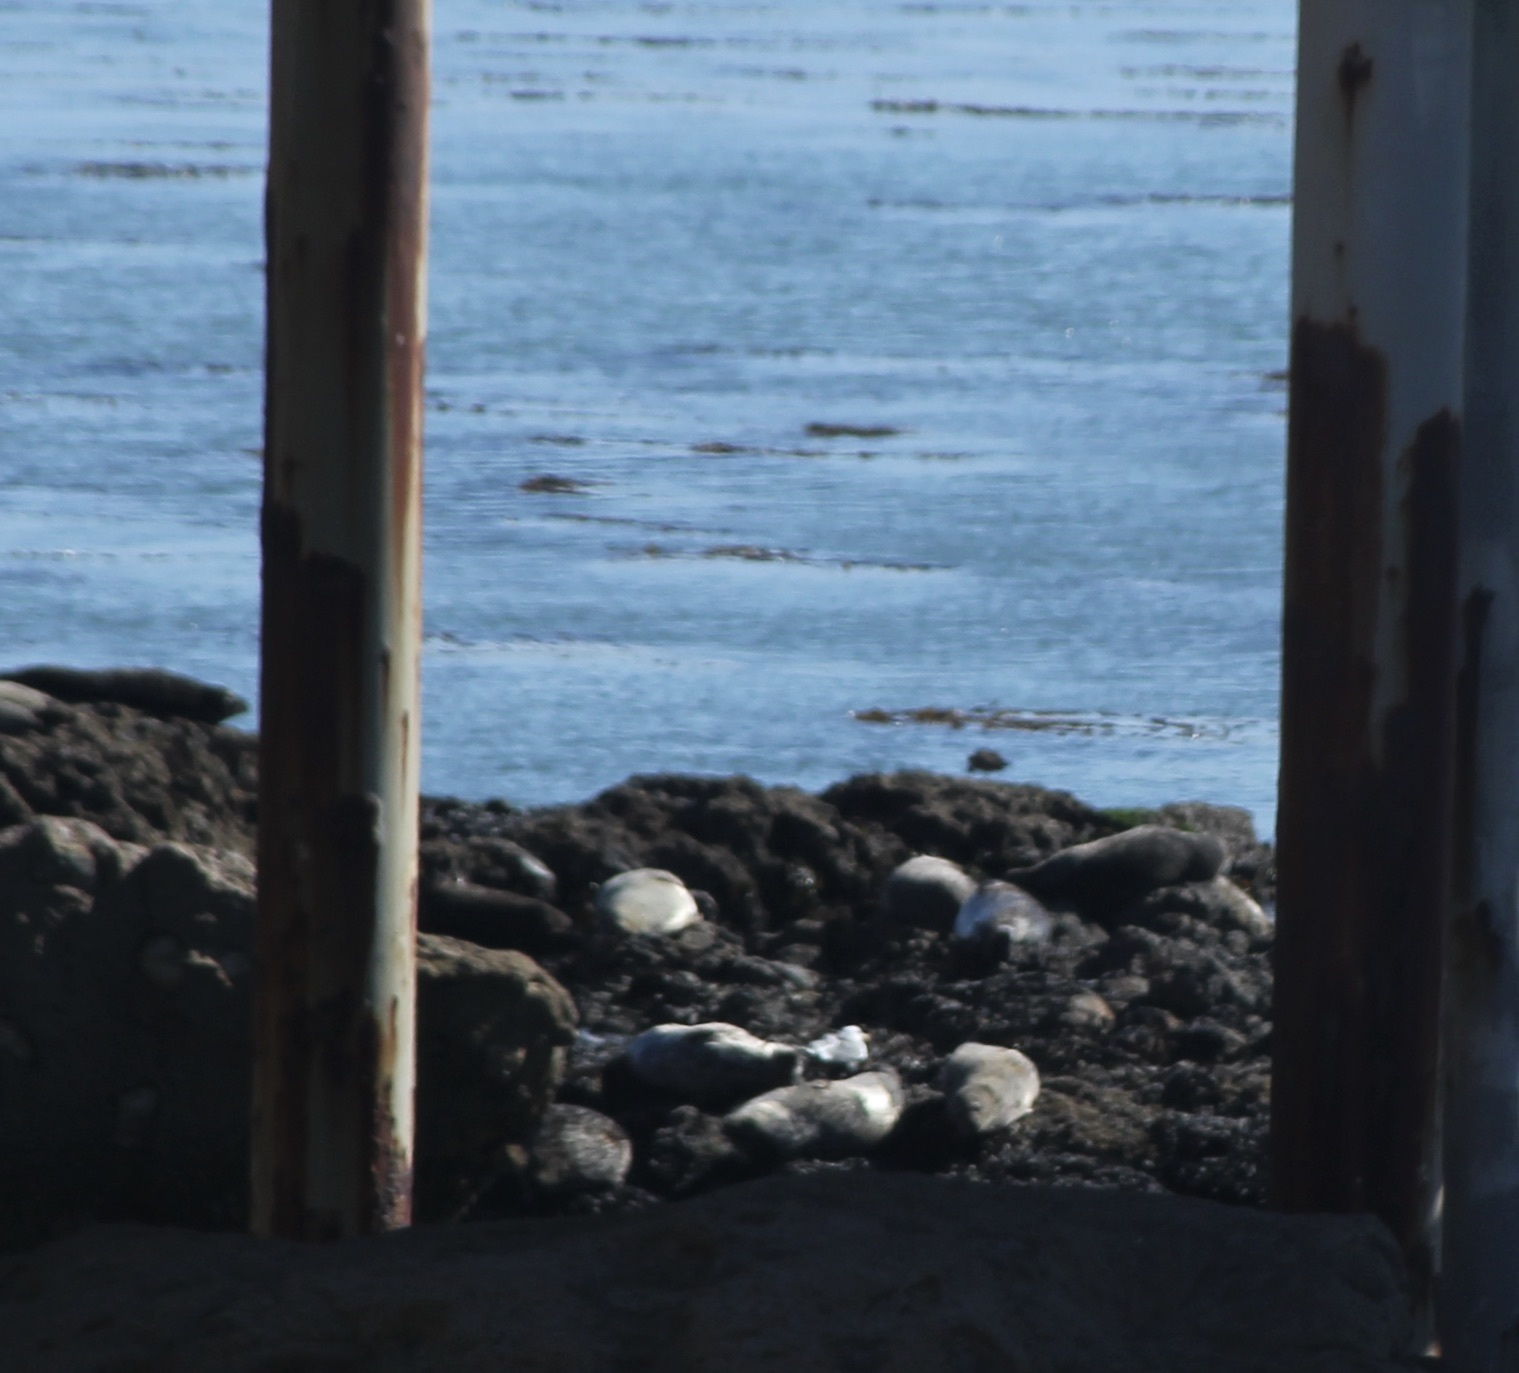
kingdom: Animalia
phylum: Chordata
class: Mammalia
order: Carnivora
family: Phocidae
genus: Phoca
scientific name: Phoca vitulina
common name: Harbor seal
